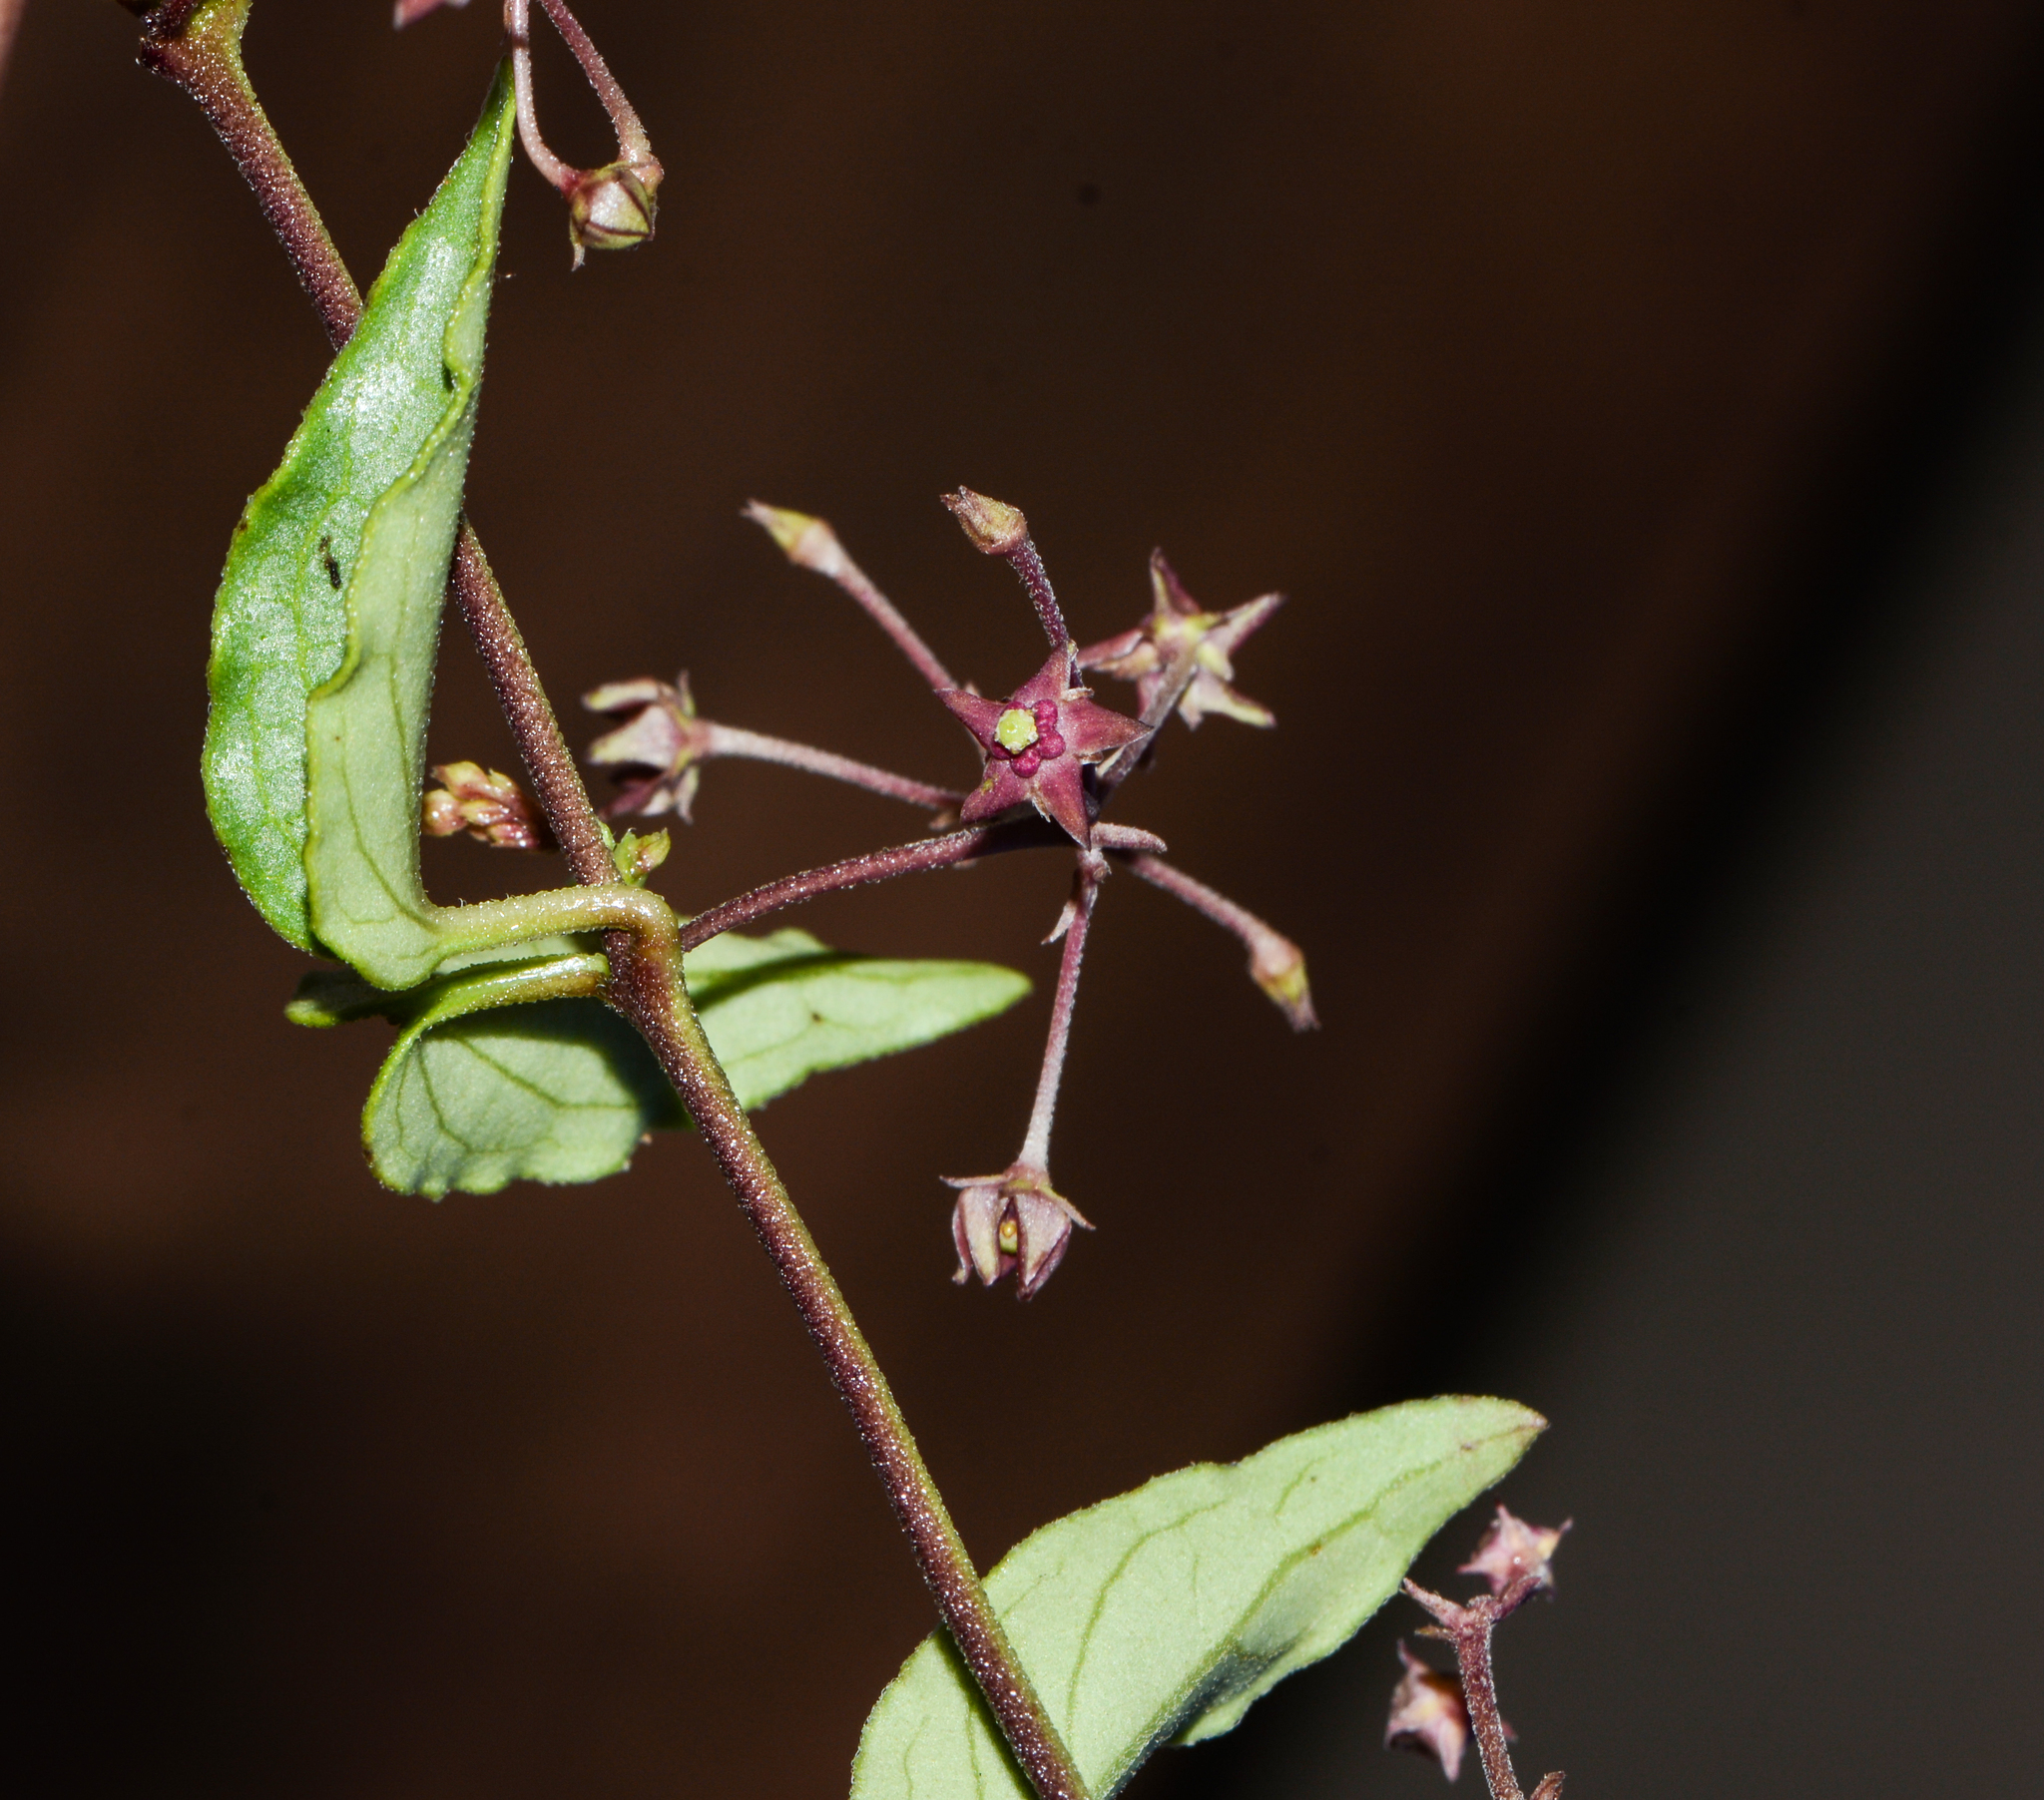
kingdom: Plantae
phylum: Tracheophyta
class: Magnoliopsida
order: Gentianales
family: Apocynaceae
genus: Vincetoxicum
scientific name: Vincetoxicum fasciculatum
